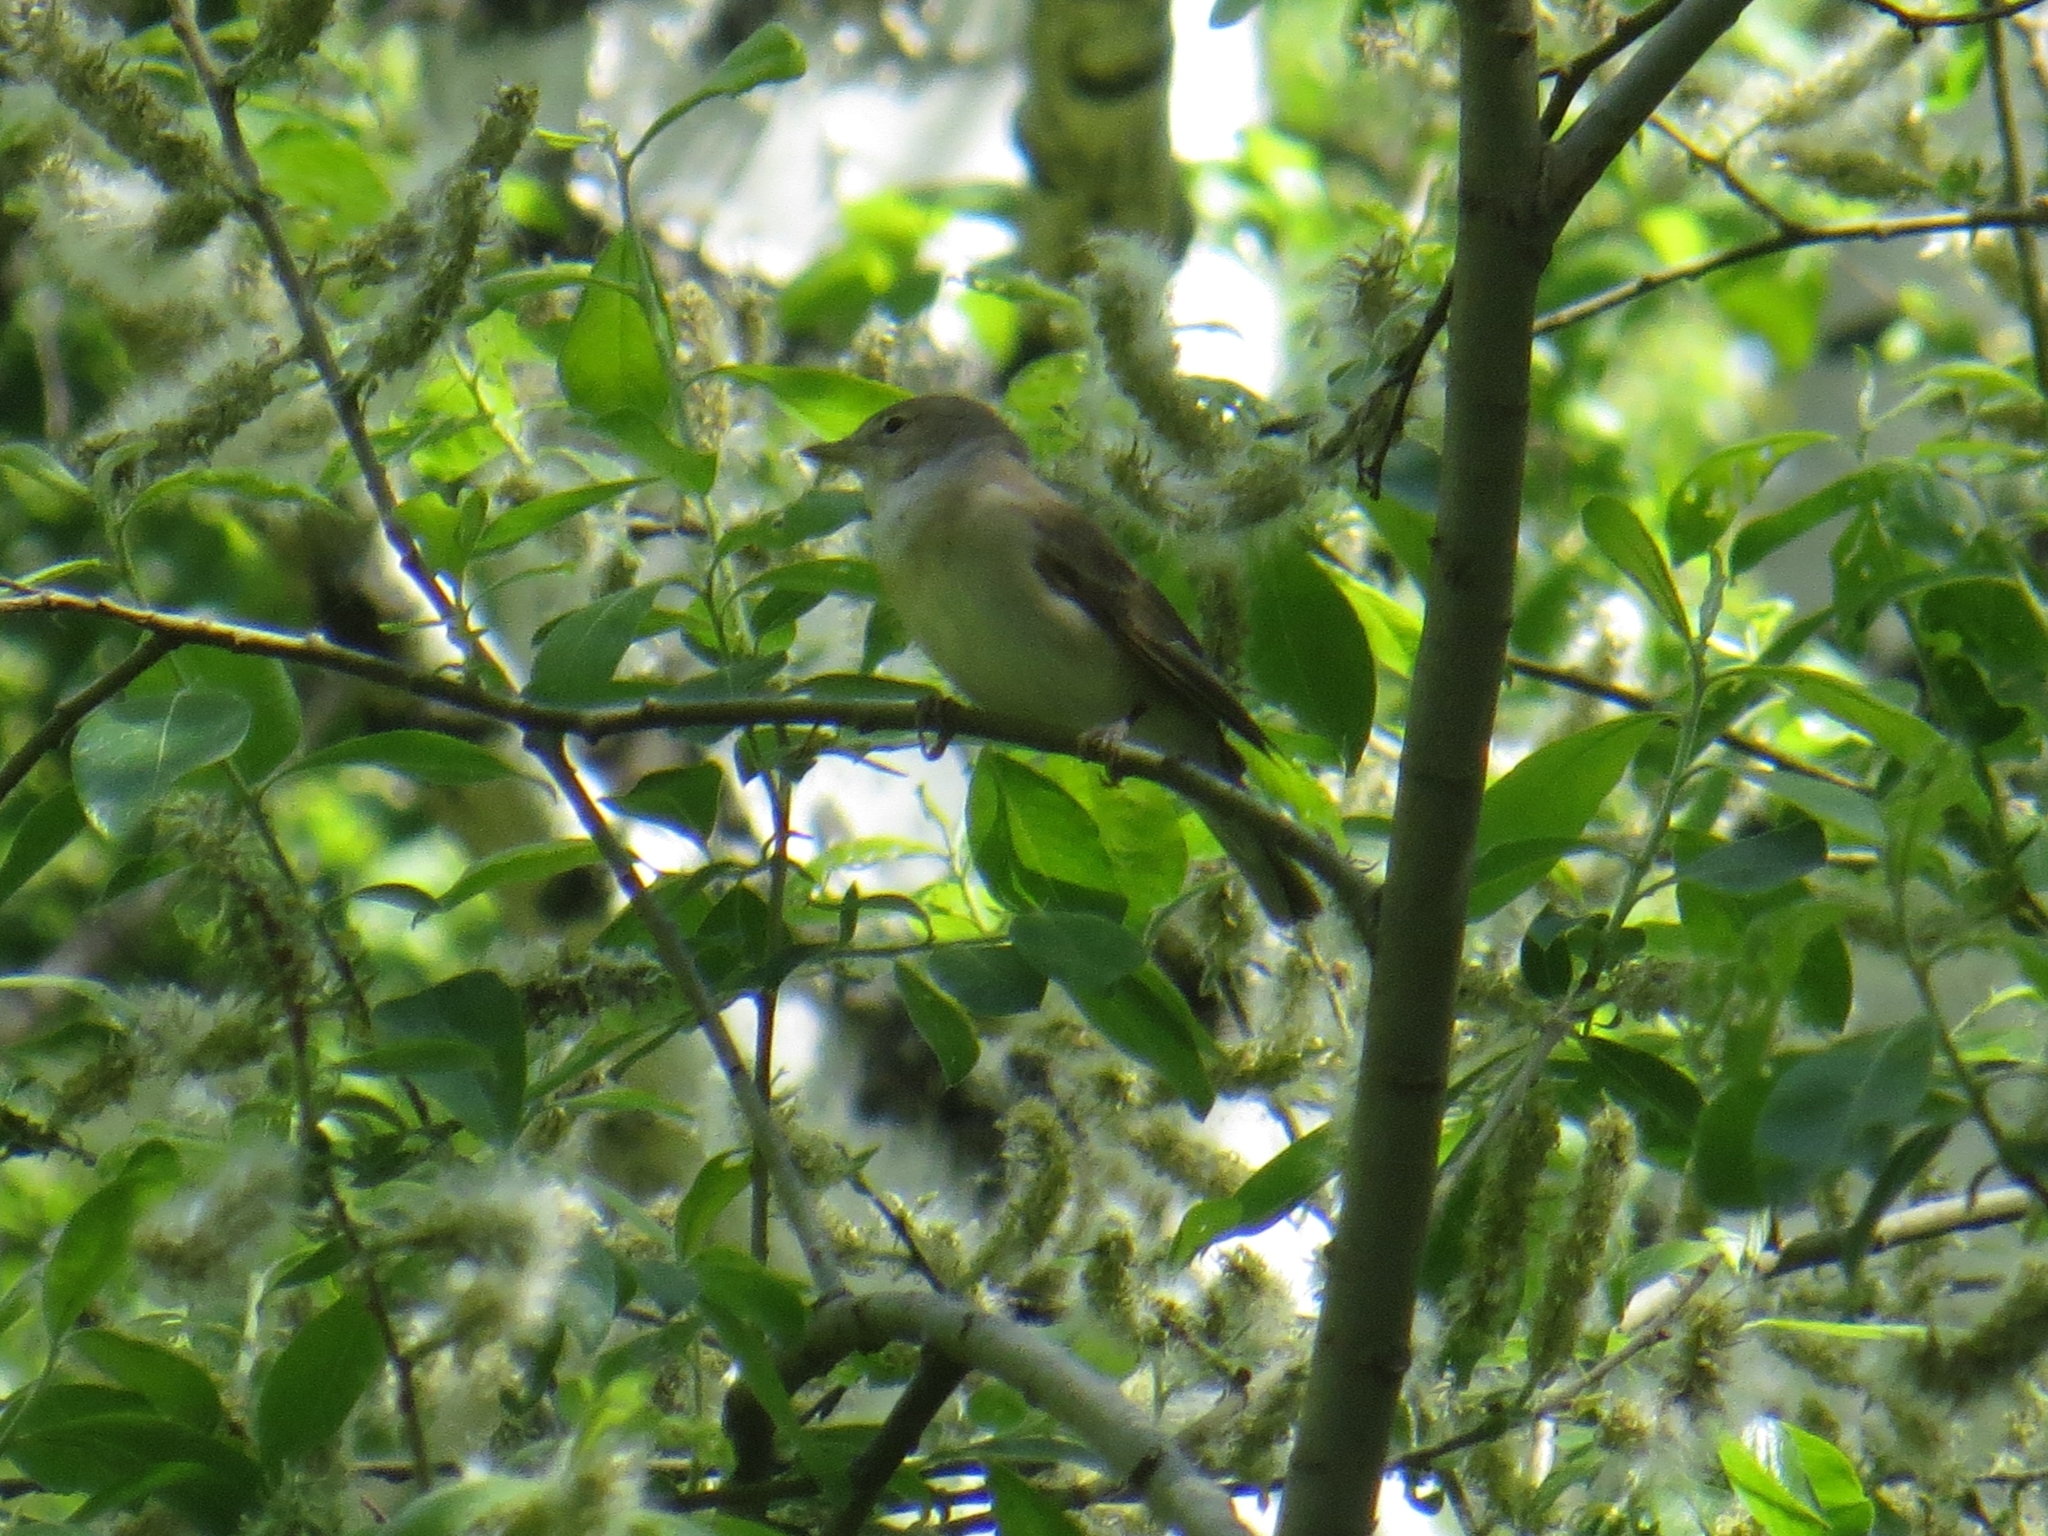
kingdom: Animalia
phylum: Chordata
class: Aves
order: Passeriformes
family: Sylviidae
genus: Sylvia
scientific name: Sylvia borin
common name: Garden warbler
